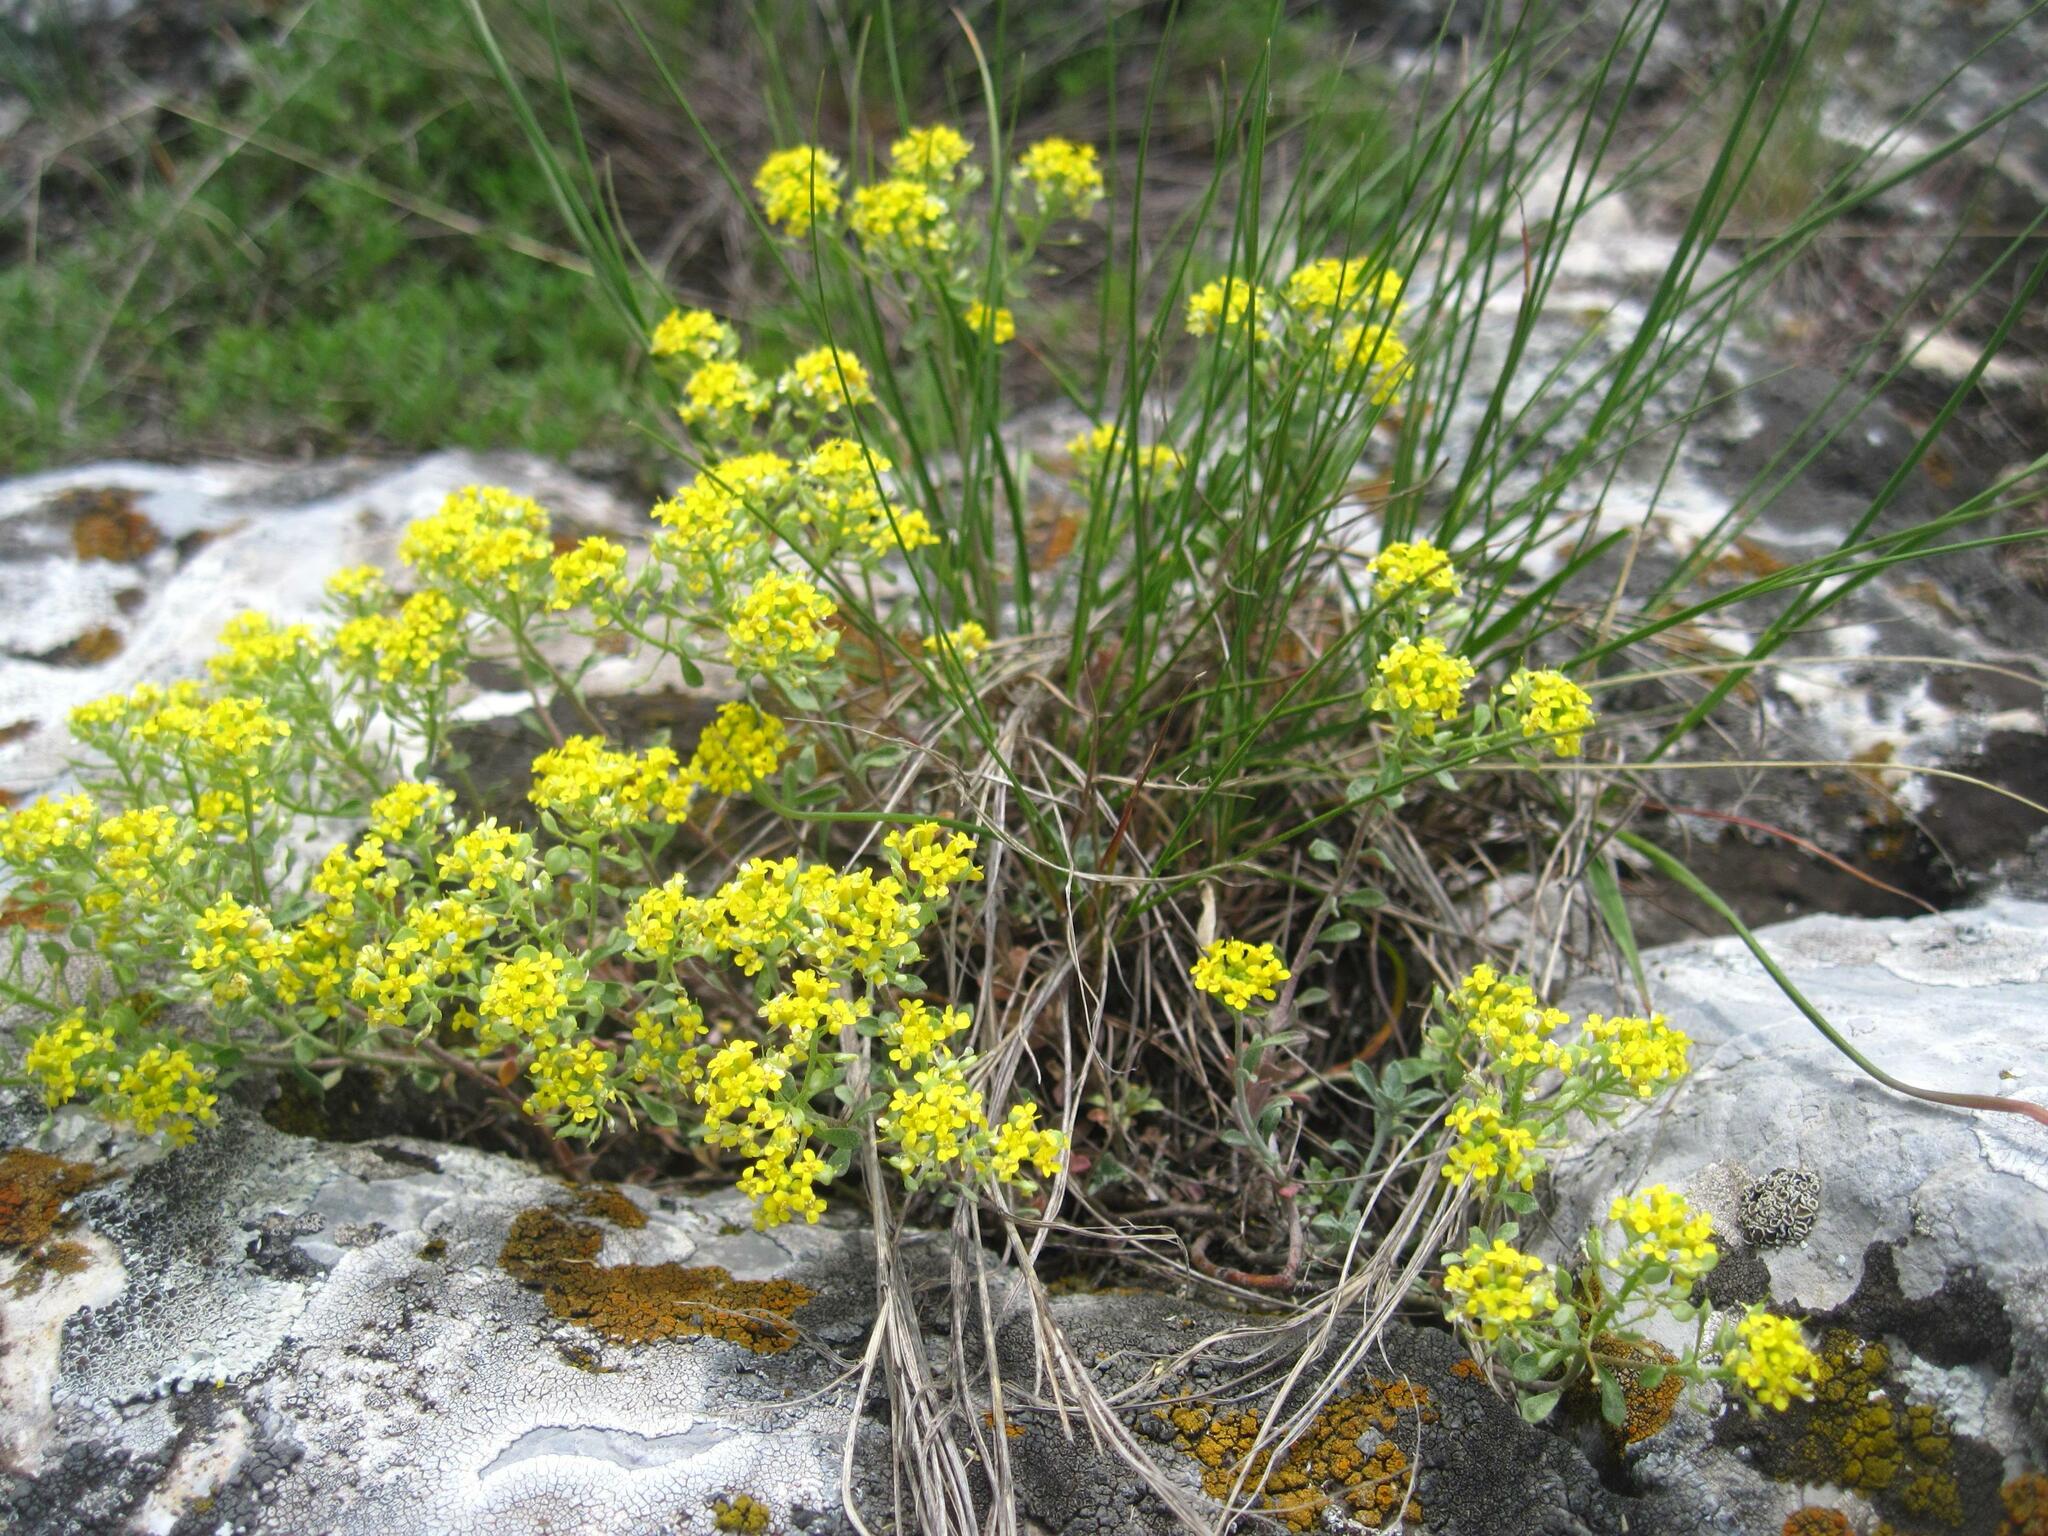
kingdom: Plantae
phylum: Tracheophyta
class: Magnoliopsida
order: Brassicales
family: Brassicaceae
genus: Odontarrhena
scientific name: Odontarrhena tortuosa
